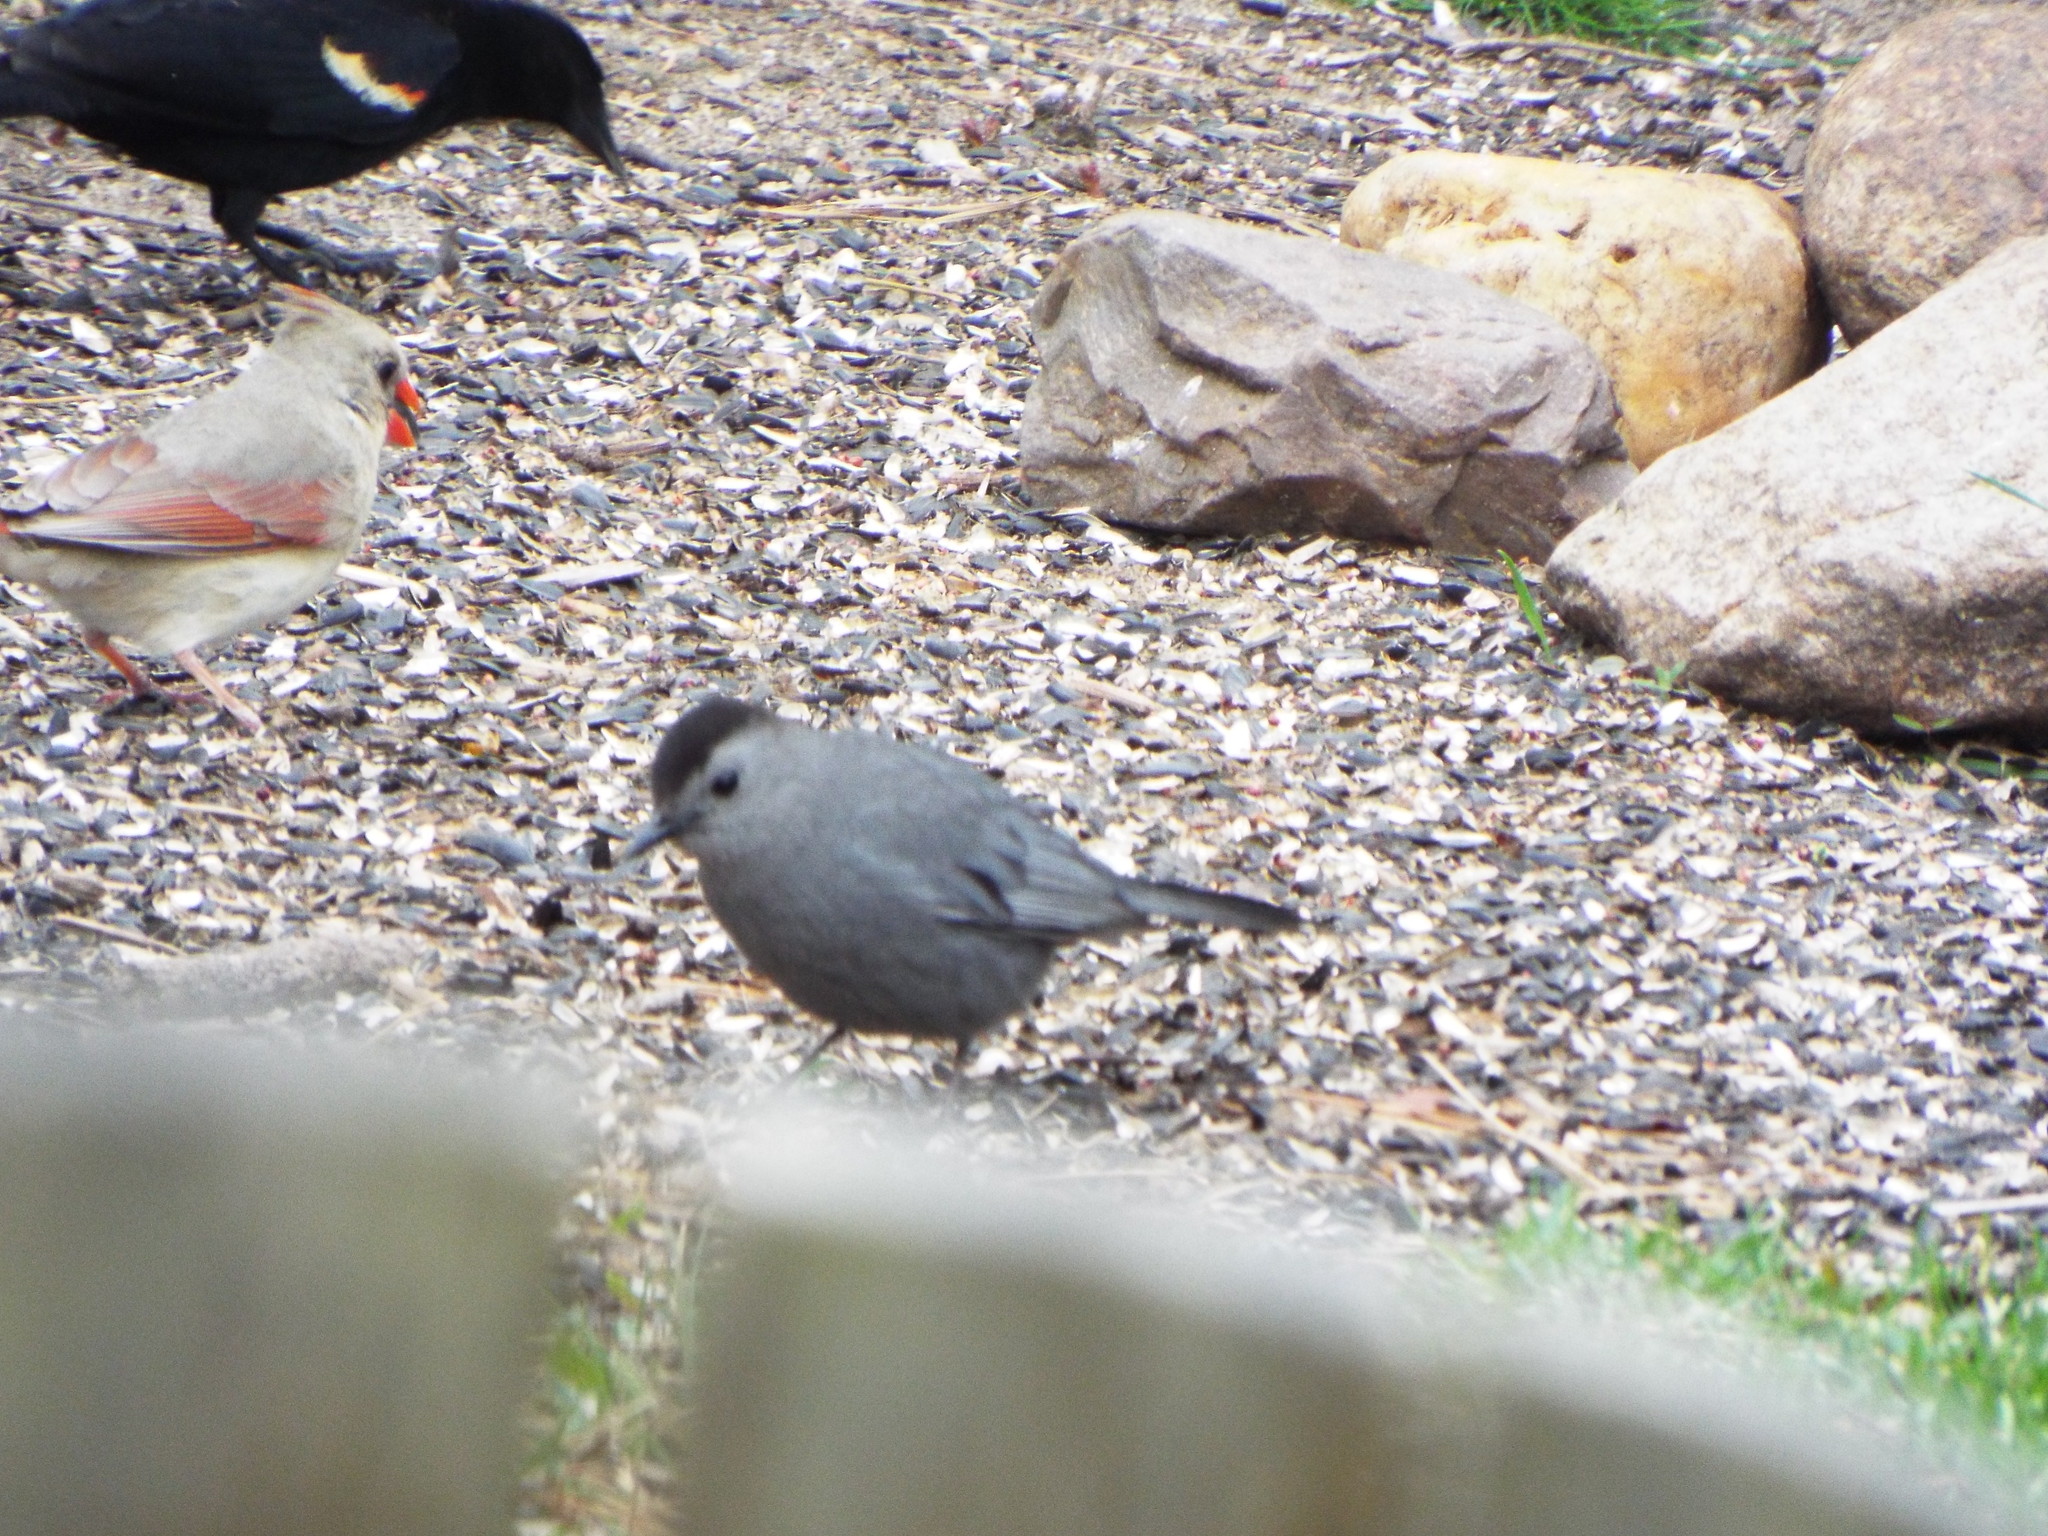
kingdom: Animalia
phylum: Chordata
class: Aves
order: Passeriformes
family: Mimidae
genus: Dumetella
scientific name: Dumetella carolinensis
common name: Gray catbird
